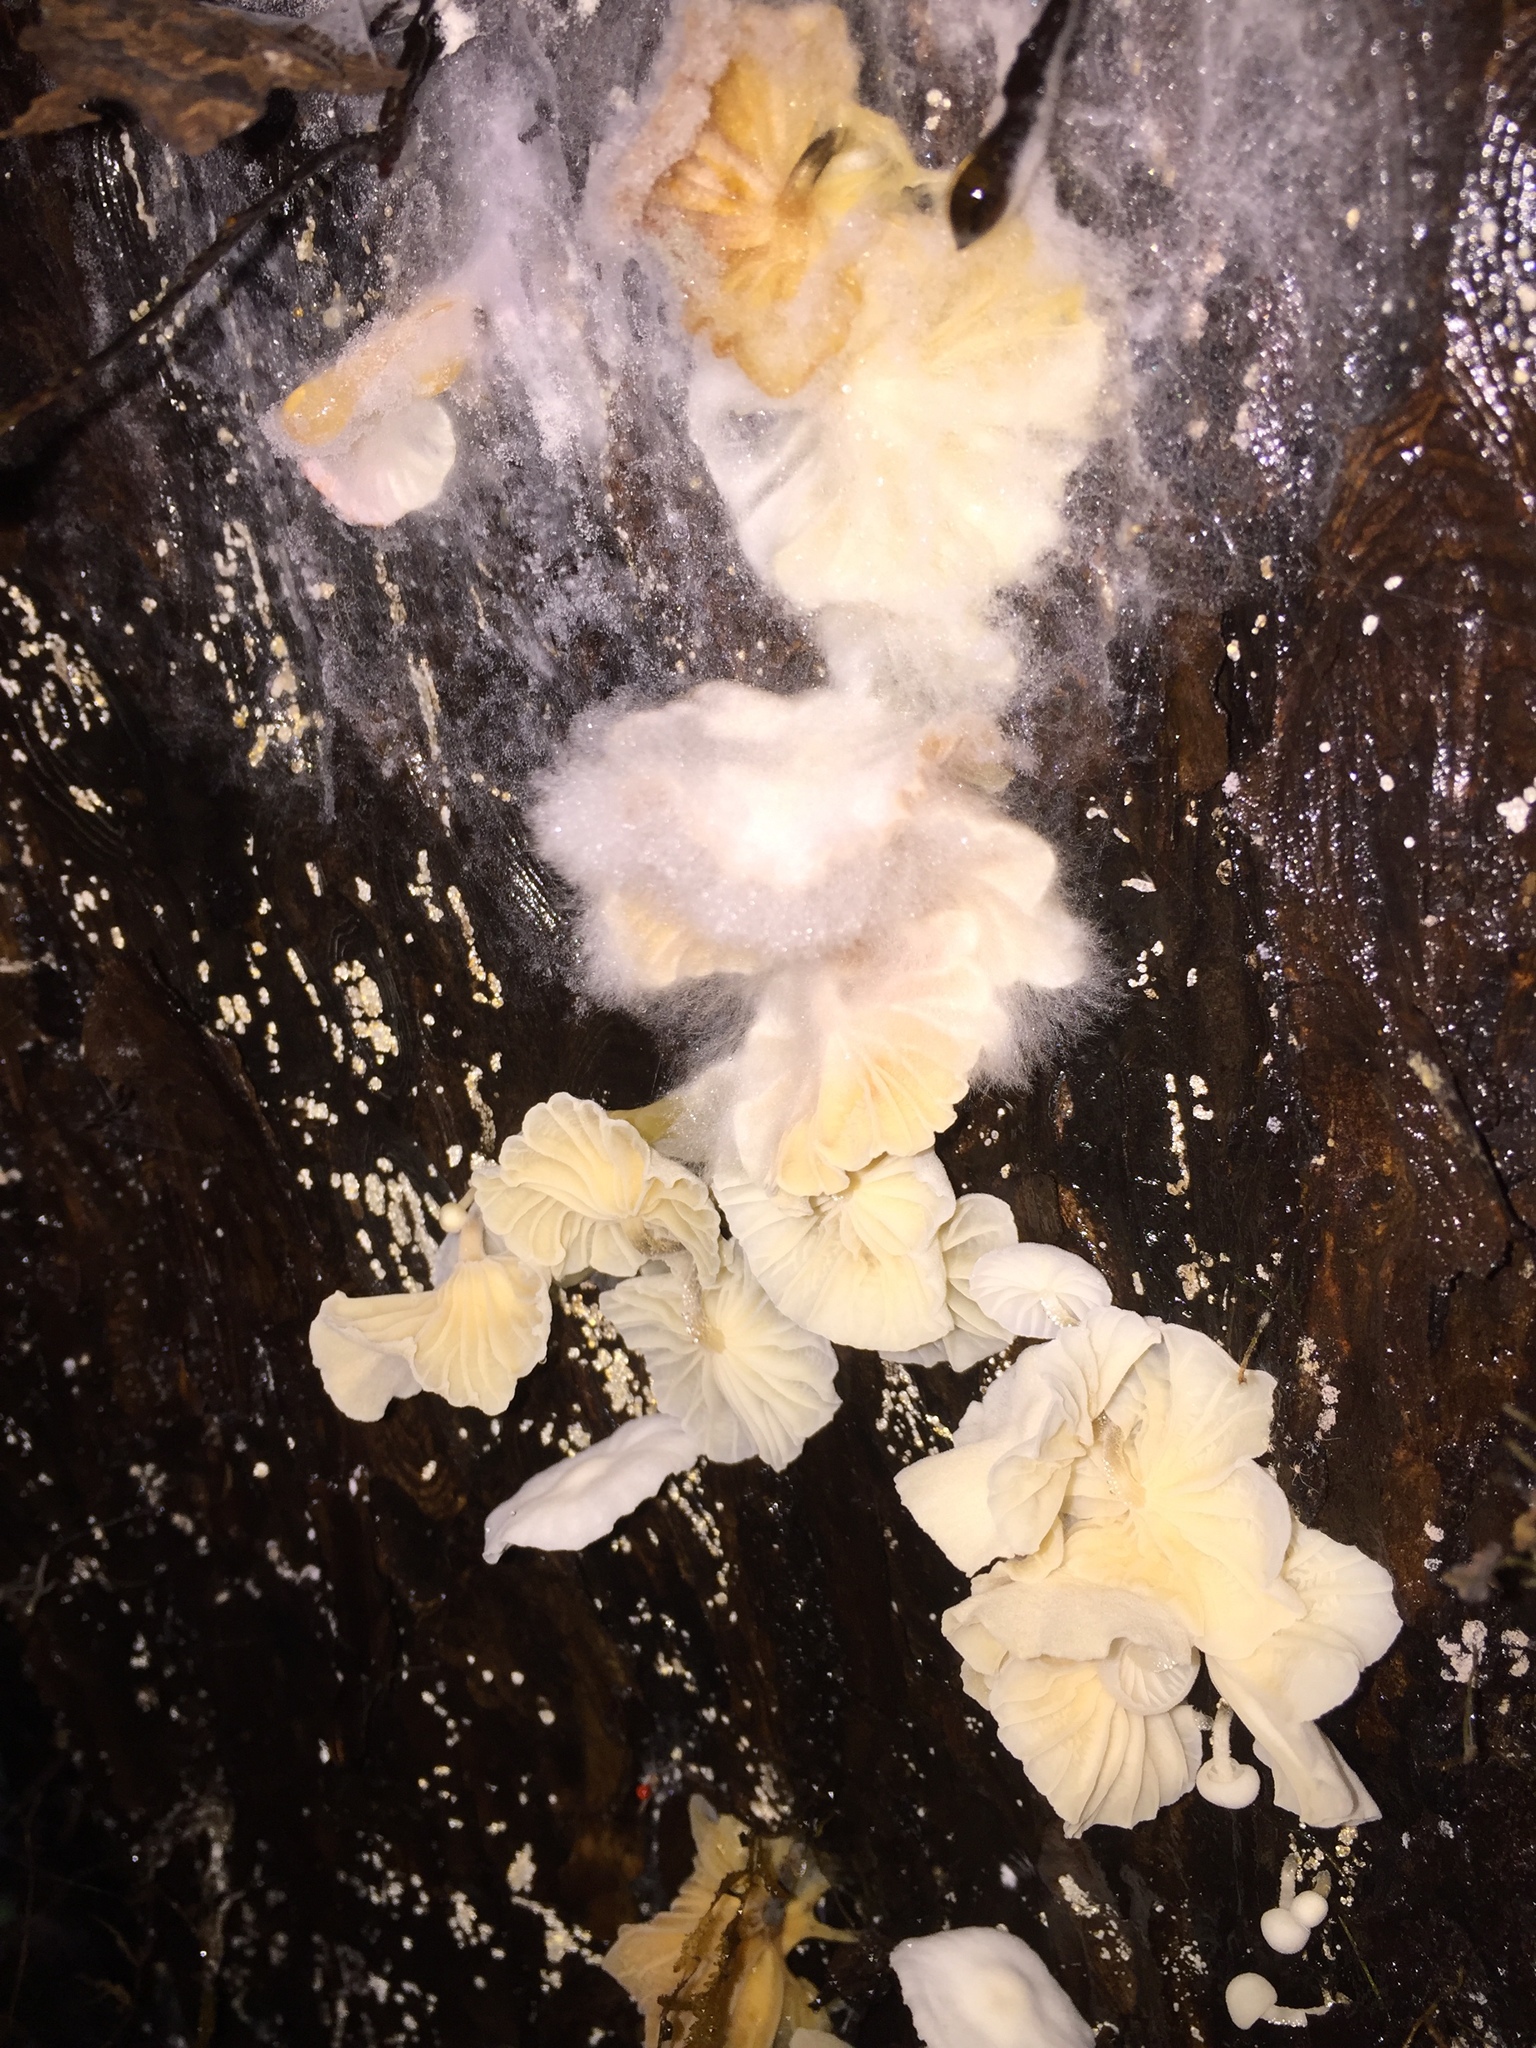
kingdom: Fungi
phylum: Basidiomycota
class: Agaricomycetes
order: Agaricales
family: Omphalotaceae
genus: Marasmiellus
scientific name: Marasmiellus candidus
